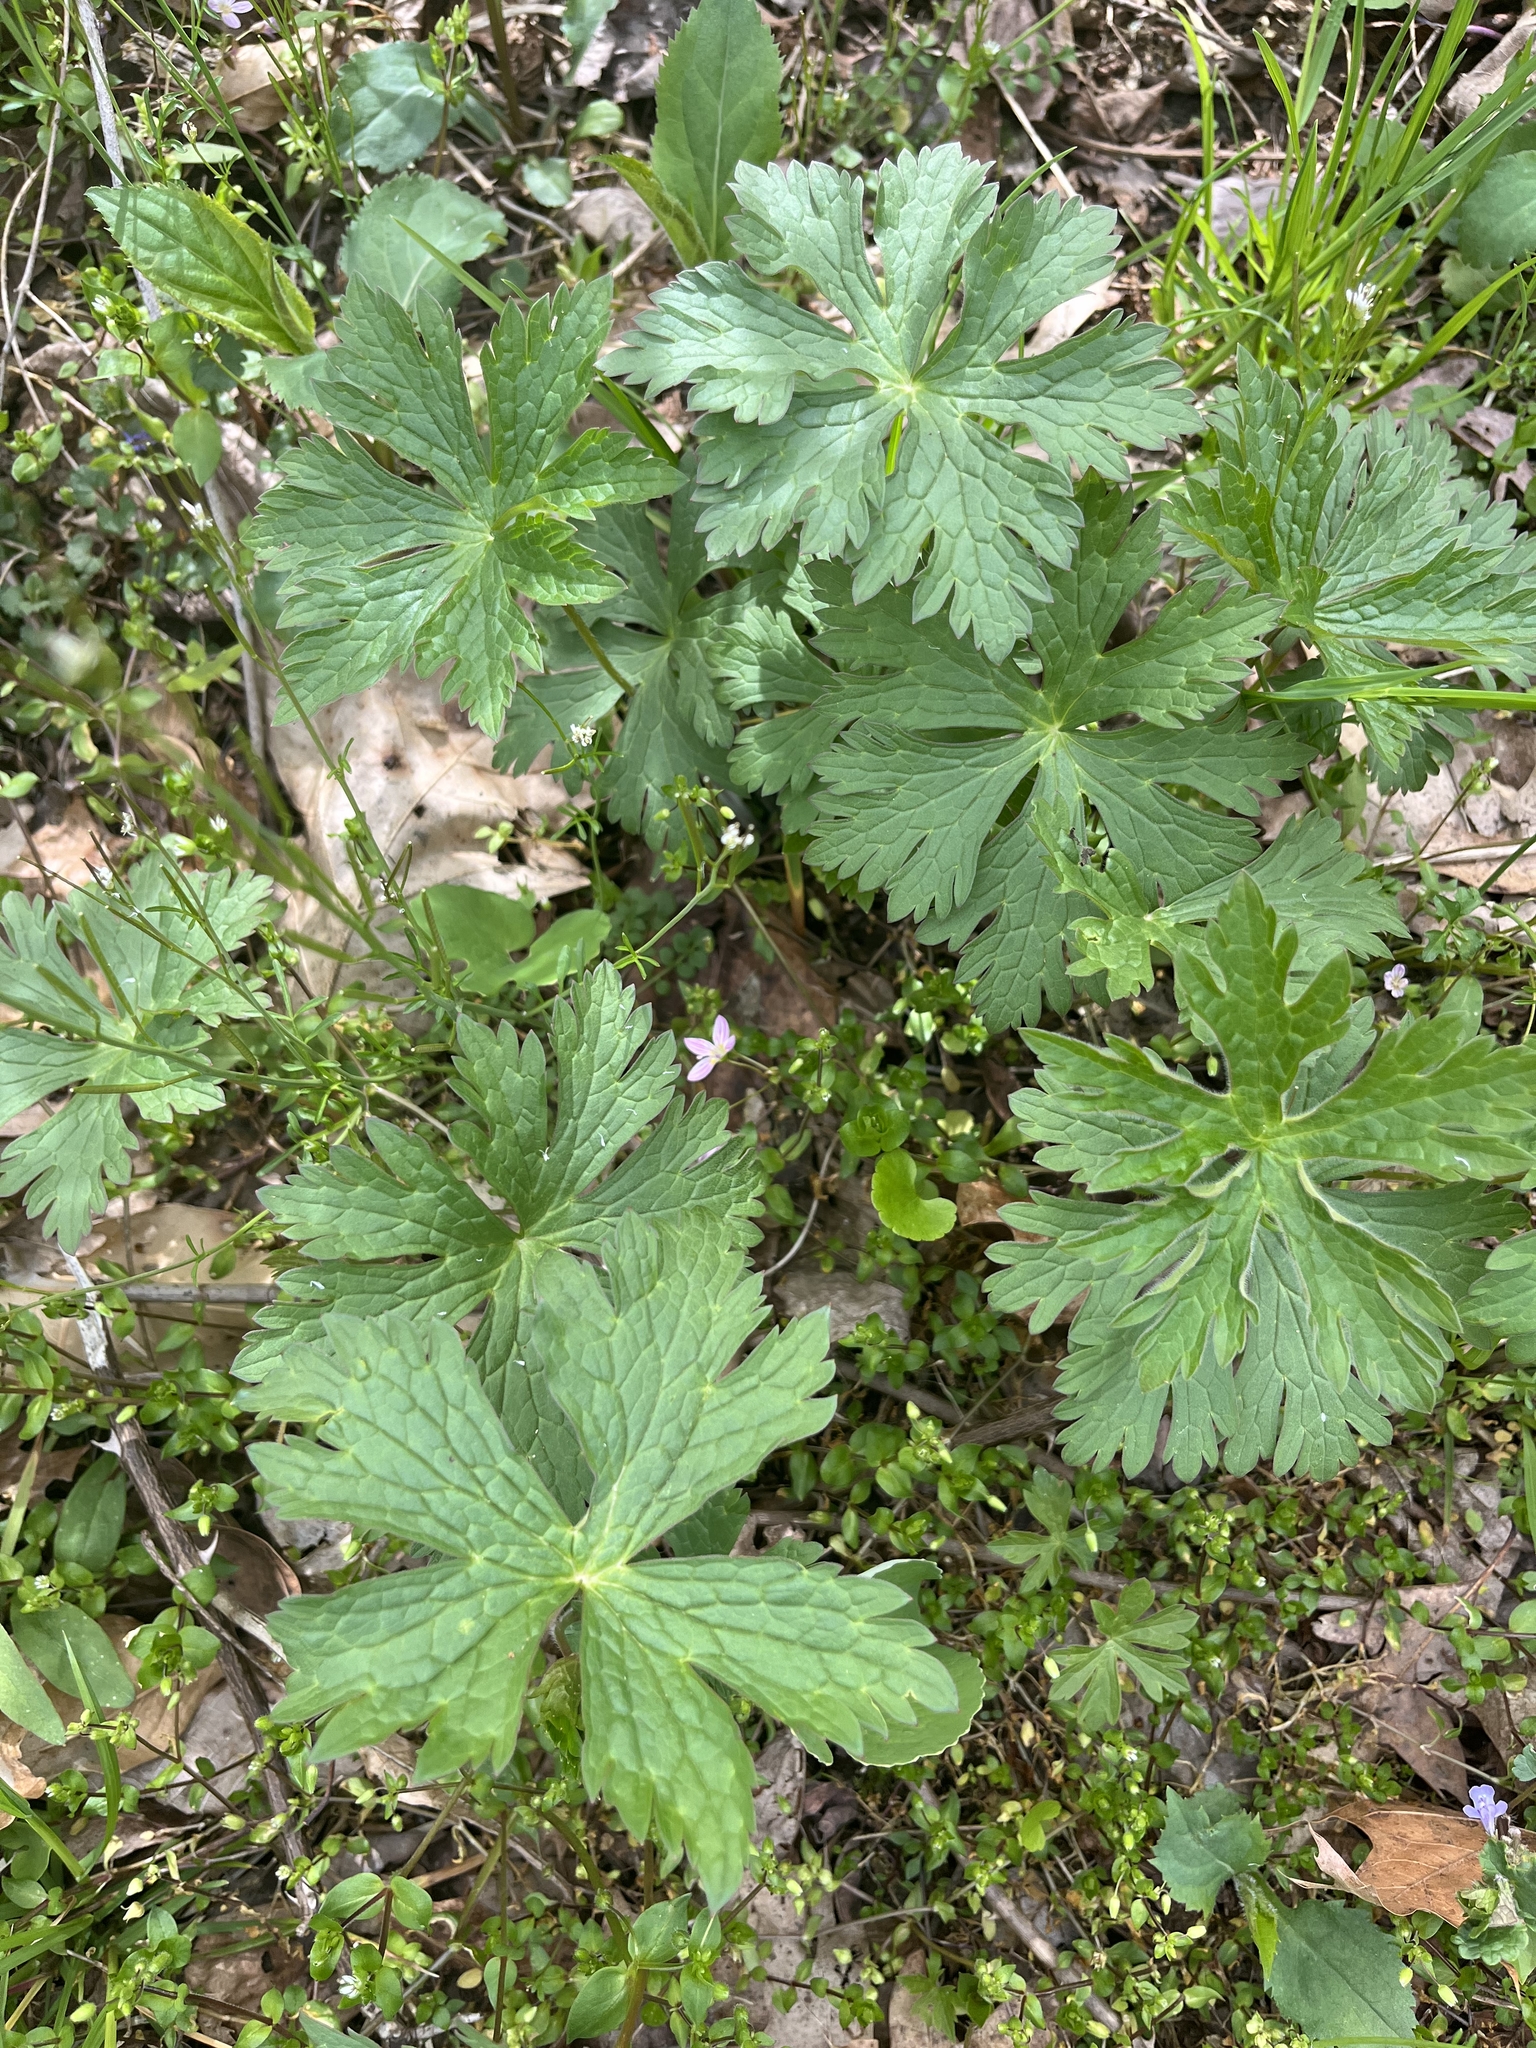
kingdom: Plantae
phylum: Tracheophyta
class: Magnoliopsida
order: Geraniales
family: Geraniaceae
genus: Geranium
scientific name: Geranium maculatum
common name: Spotted geranium
